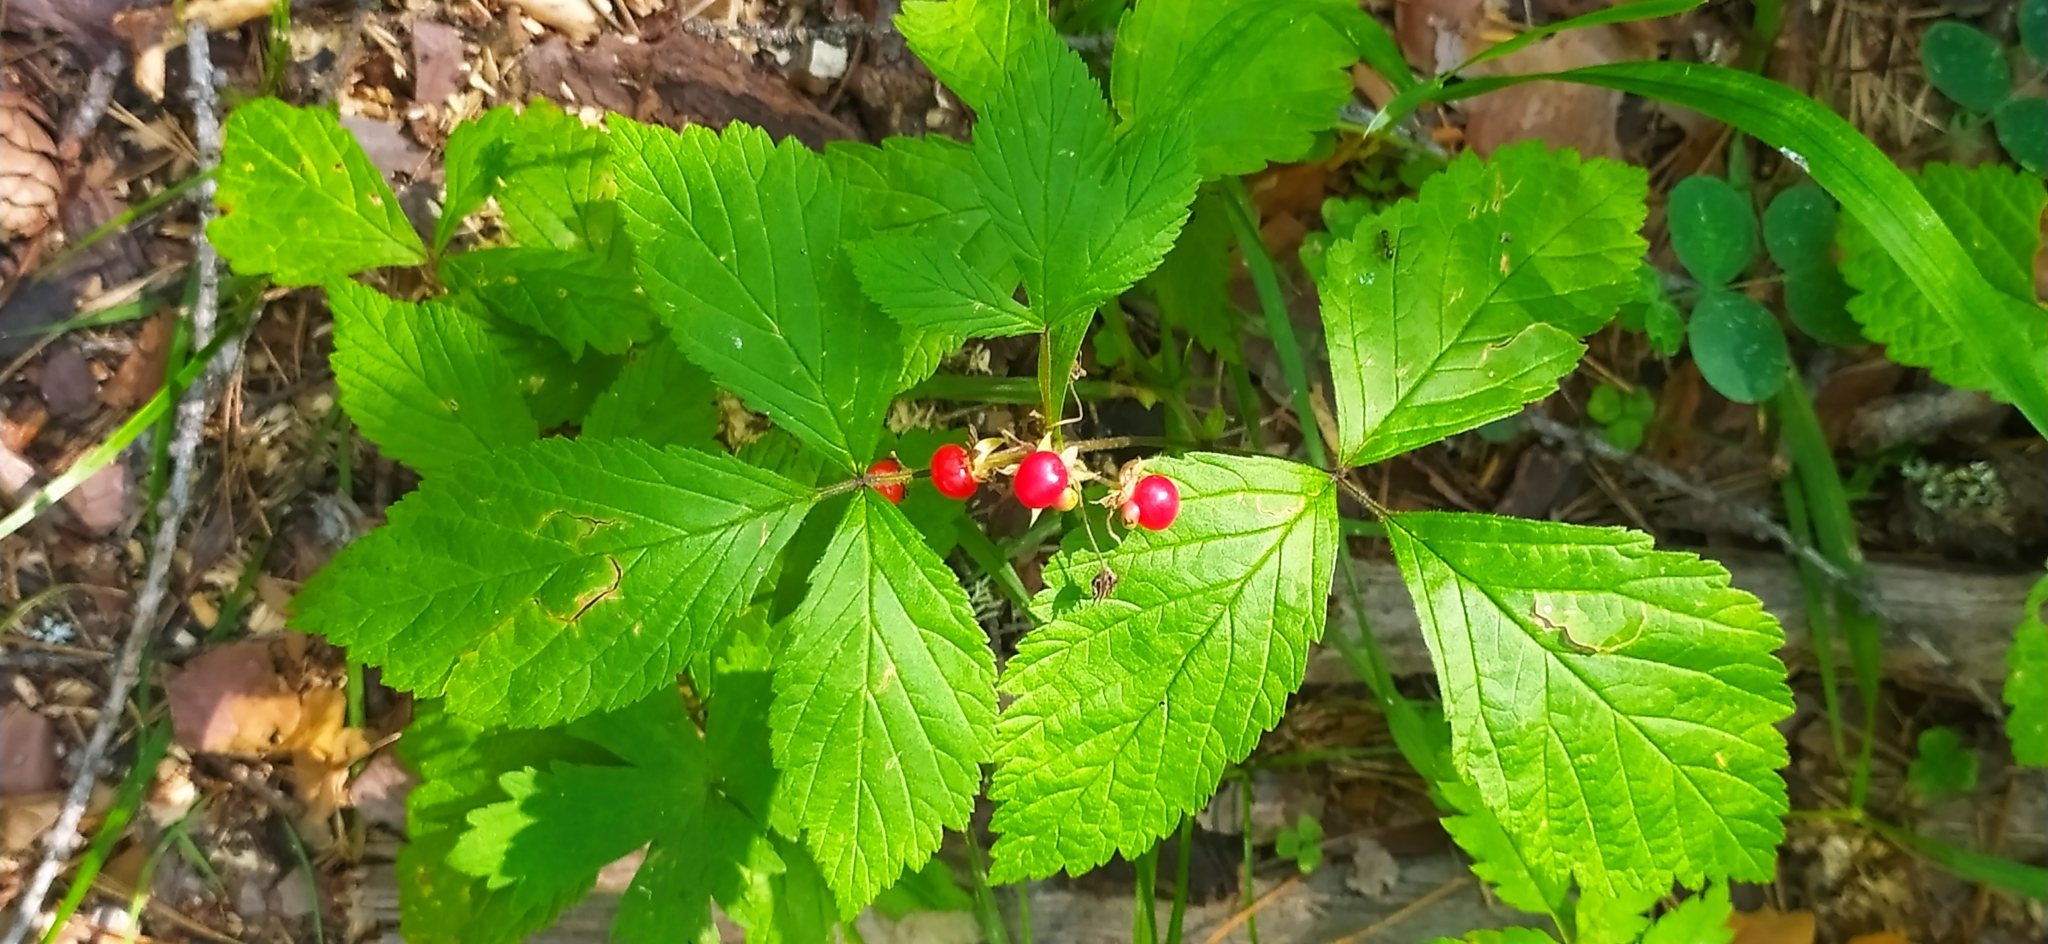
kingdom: Plantae
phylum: Tracheophyta
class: Magnoliopsida
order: Rosales
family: Rosaceae
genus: Rubus
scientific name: Rubus saxatilis
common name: Stone bramble
